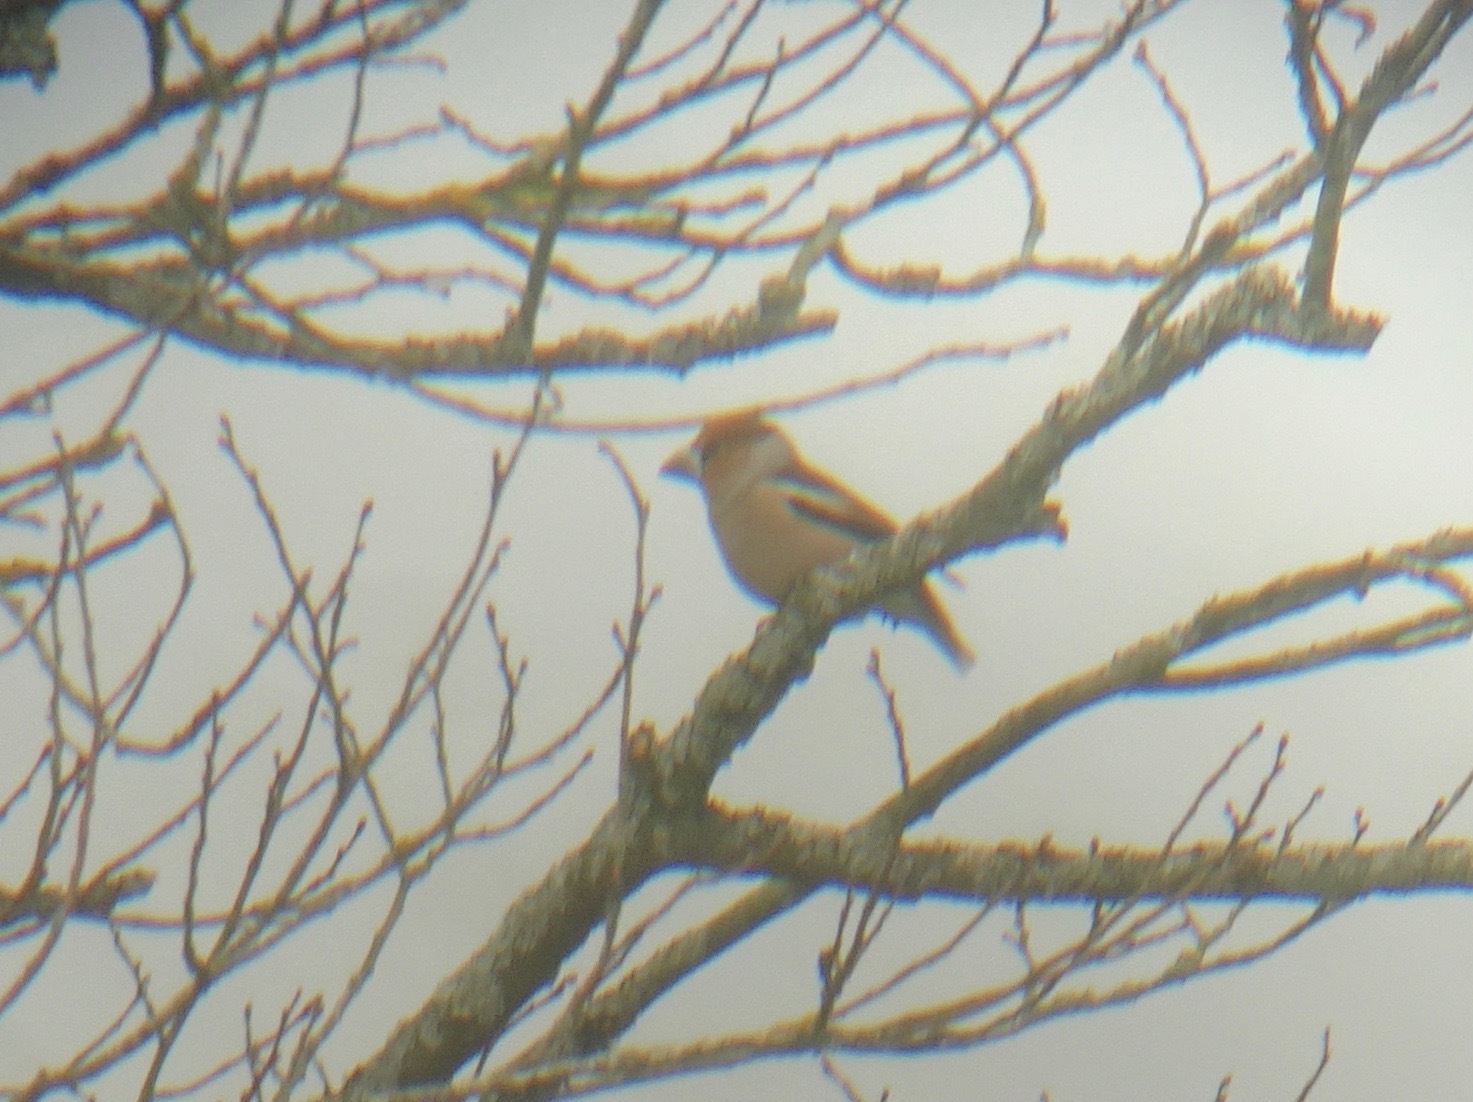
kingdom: Animalia
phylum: Chordata
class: Aves
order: Passeriformes
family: Fringillidae
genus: Coccothraustes
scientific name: Coccothraustes coccothraustes
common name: Hawfinch
